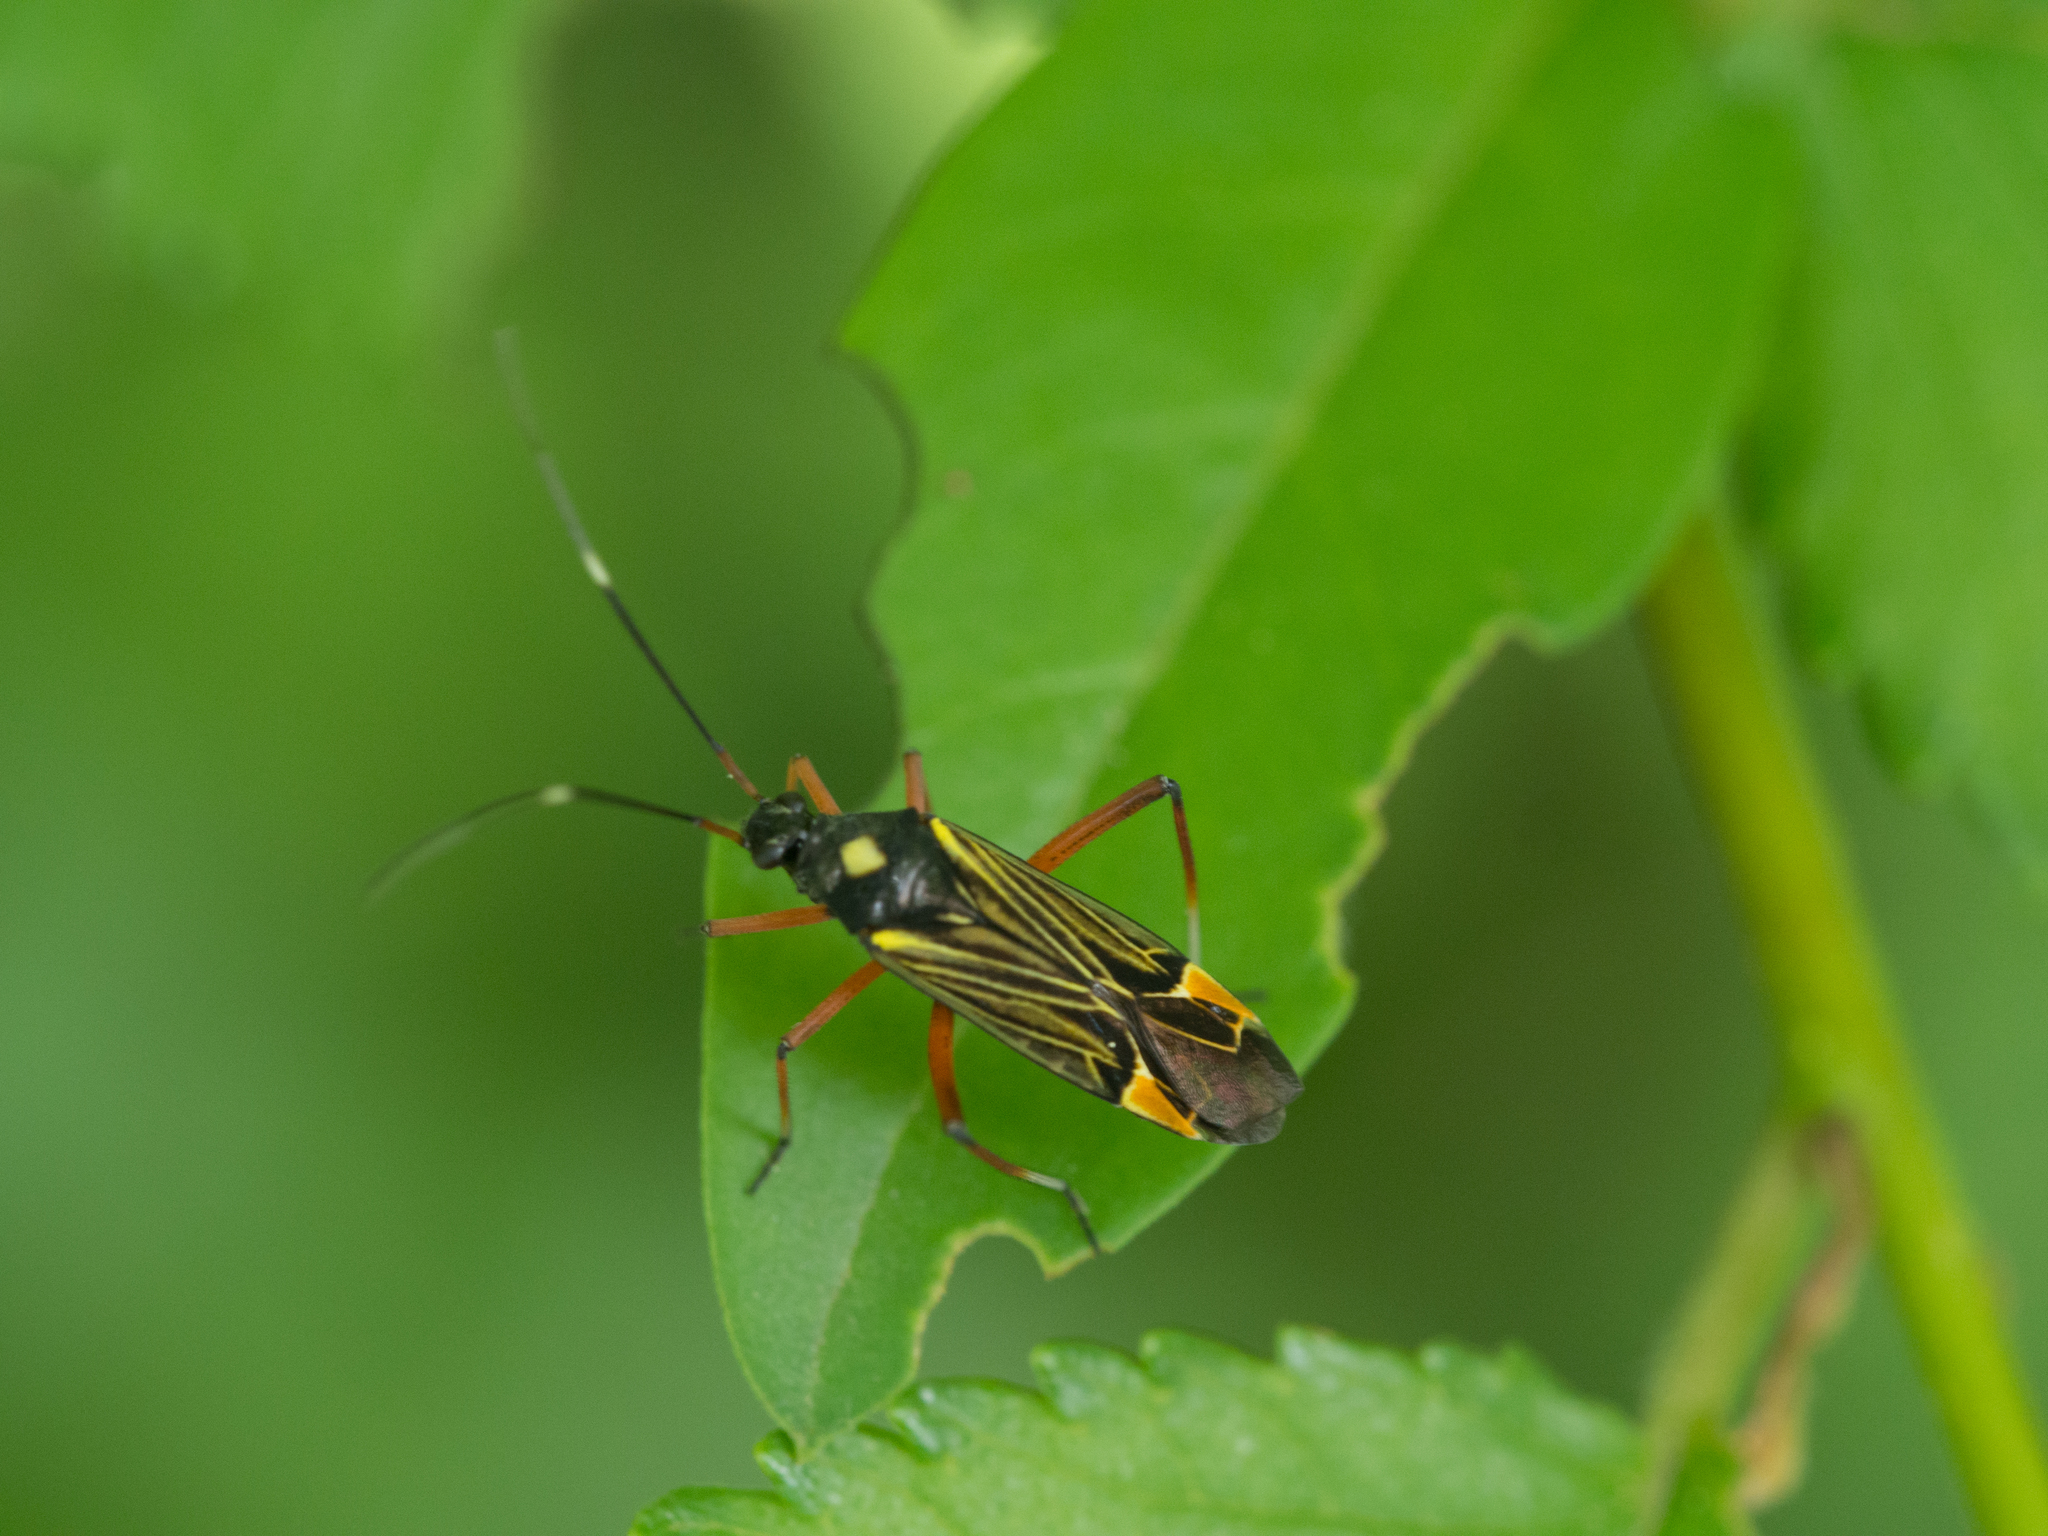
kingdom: Animalia
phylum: Arthropoda
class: Insecta
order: Hemiptera
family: Miridae
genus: Miris
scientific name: Miris striatus
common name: Fine streaked bugkin
